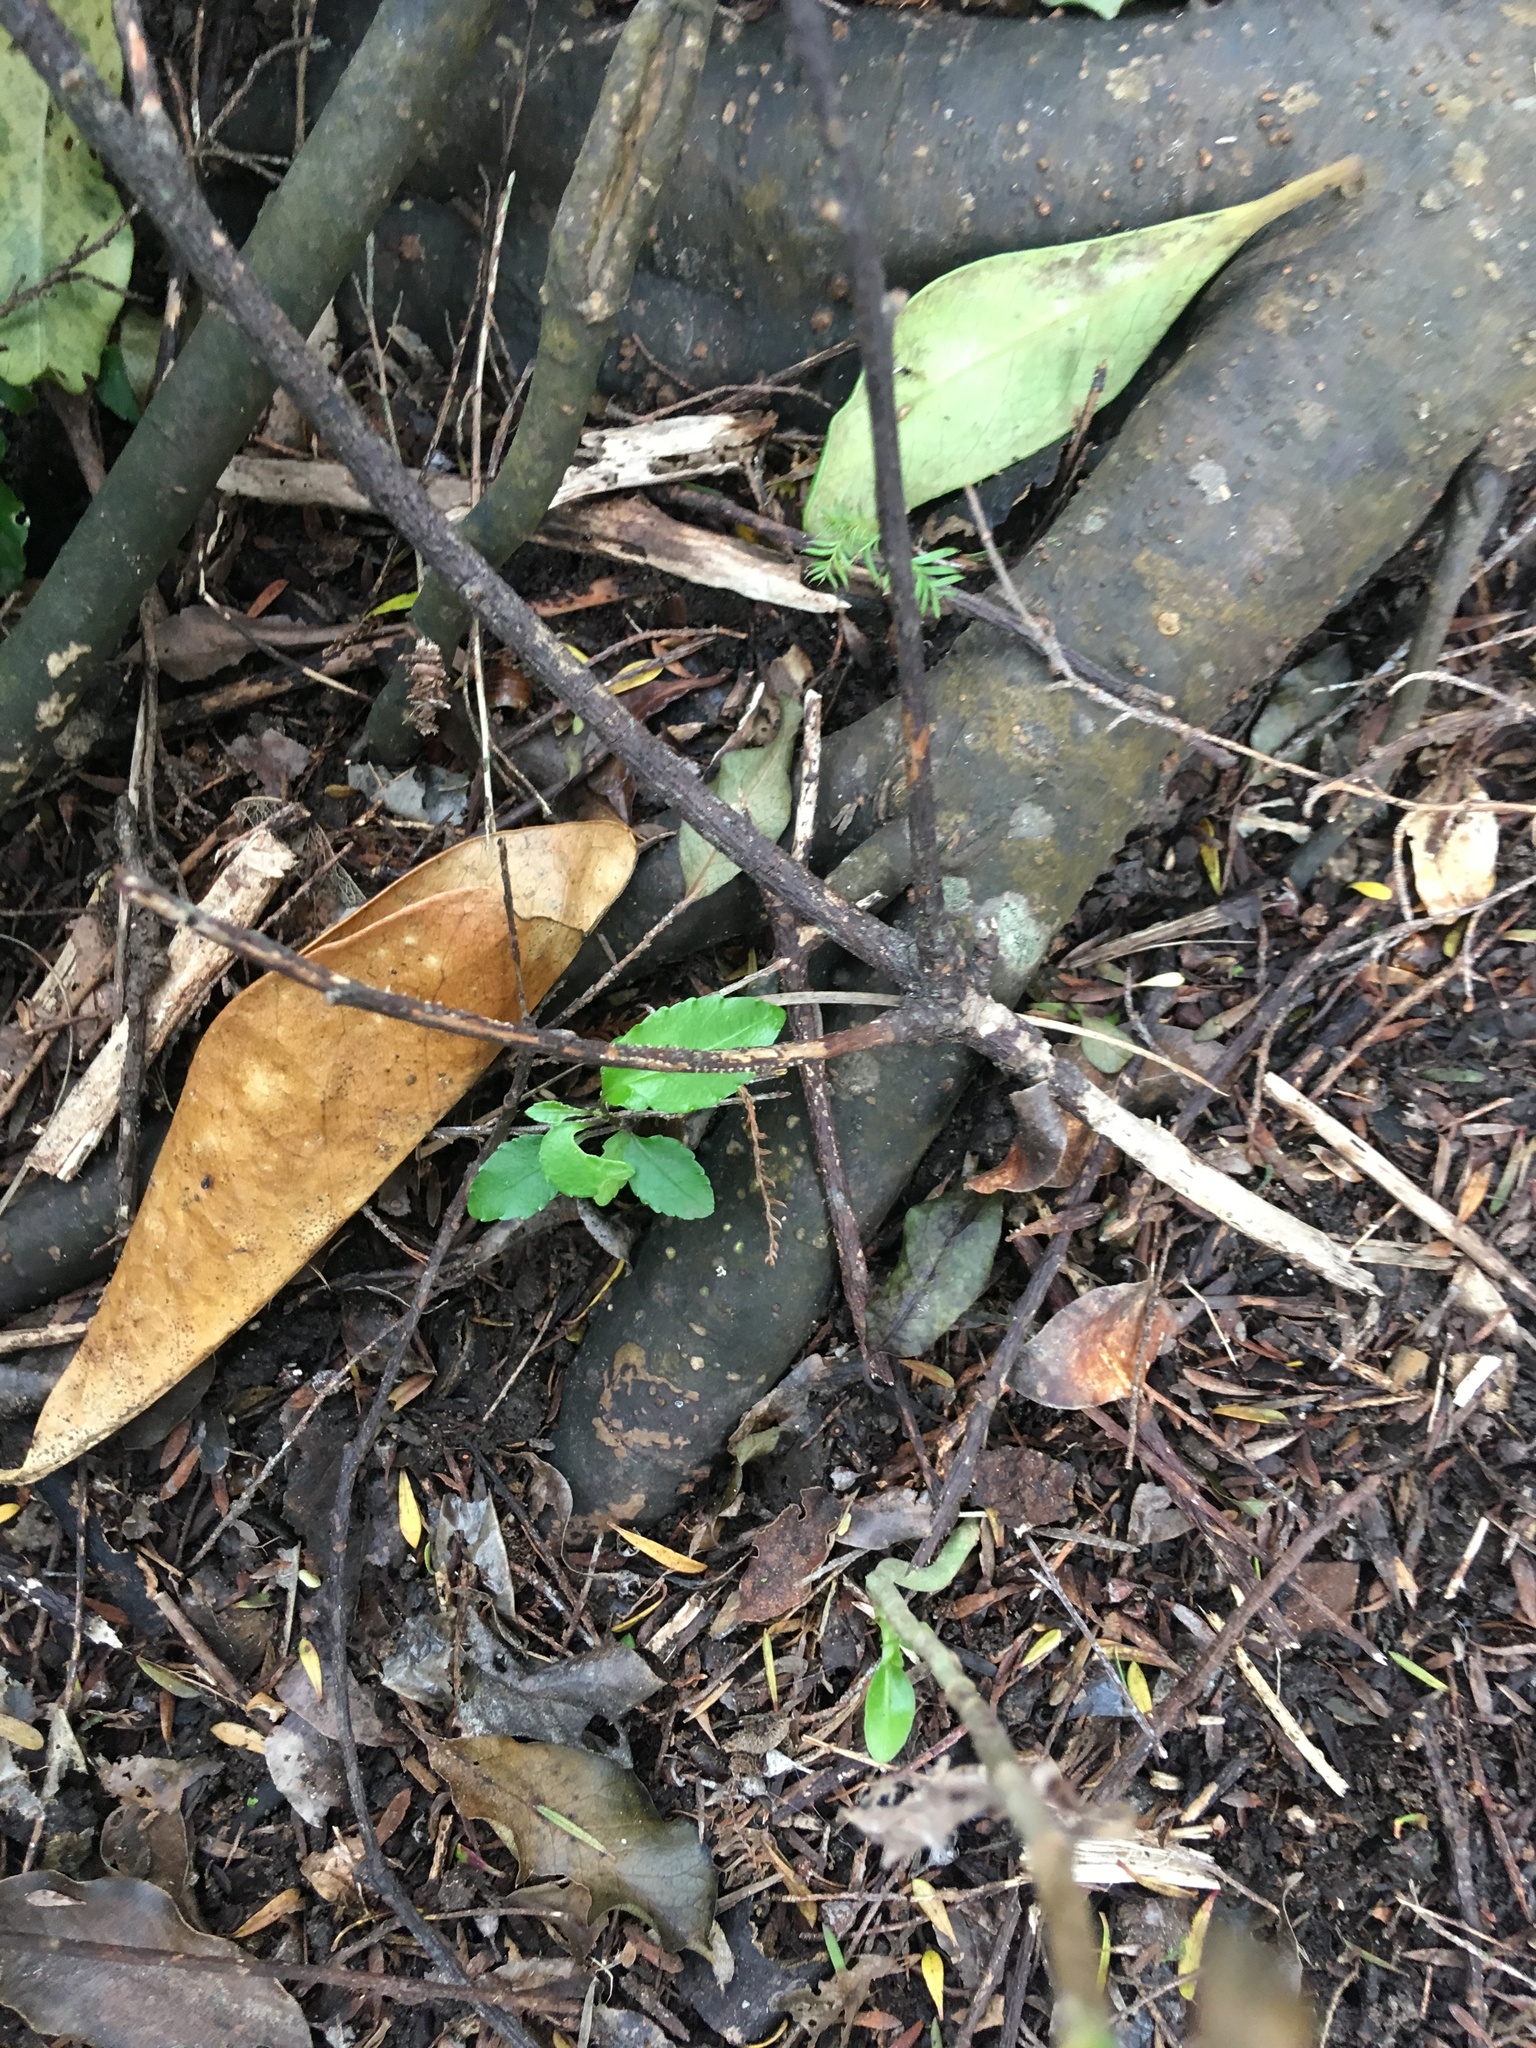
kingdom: Plantae
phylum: Tracheophyta
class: Magnoliopsida
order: Malpighiales
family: Violaceae
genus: Melicytus
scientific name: Melicytus ramiflorus
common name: Mahoe
